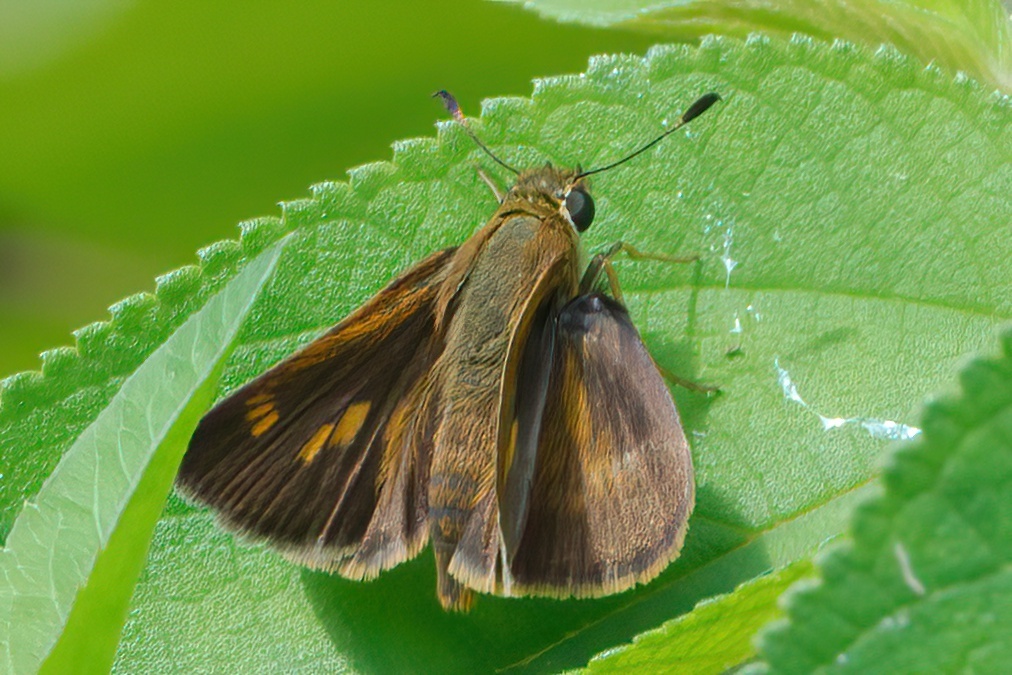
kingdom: Animalia
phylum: Arthropoda
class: Insecta
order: Lepidoptera
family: Hesperiidae
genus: Polites
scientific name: Polites otho
